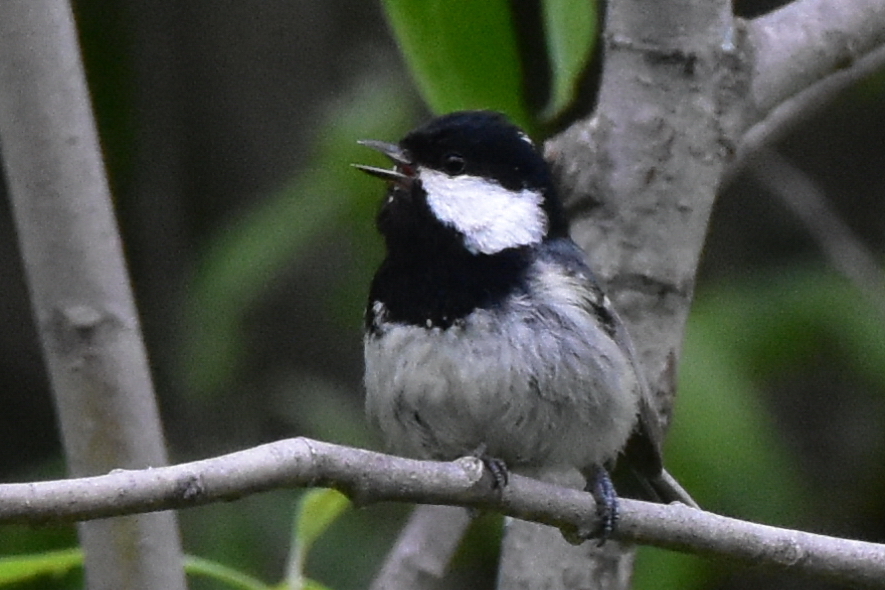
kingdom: Animalia
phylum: Chordata
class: Aves
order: Passeriformes
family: Paridae
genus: Periparus
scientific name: Periparus ater
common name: Coal tit
